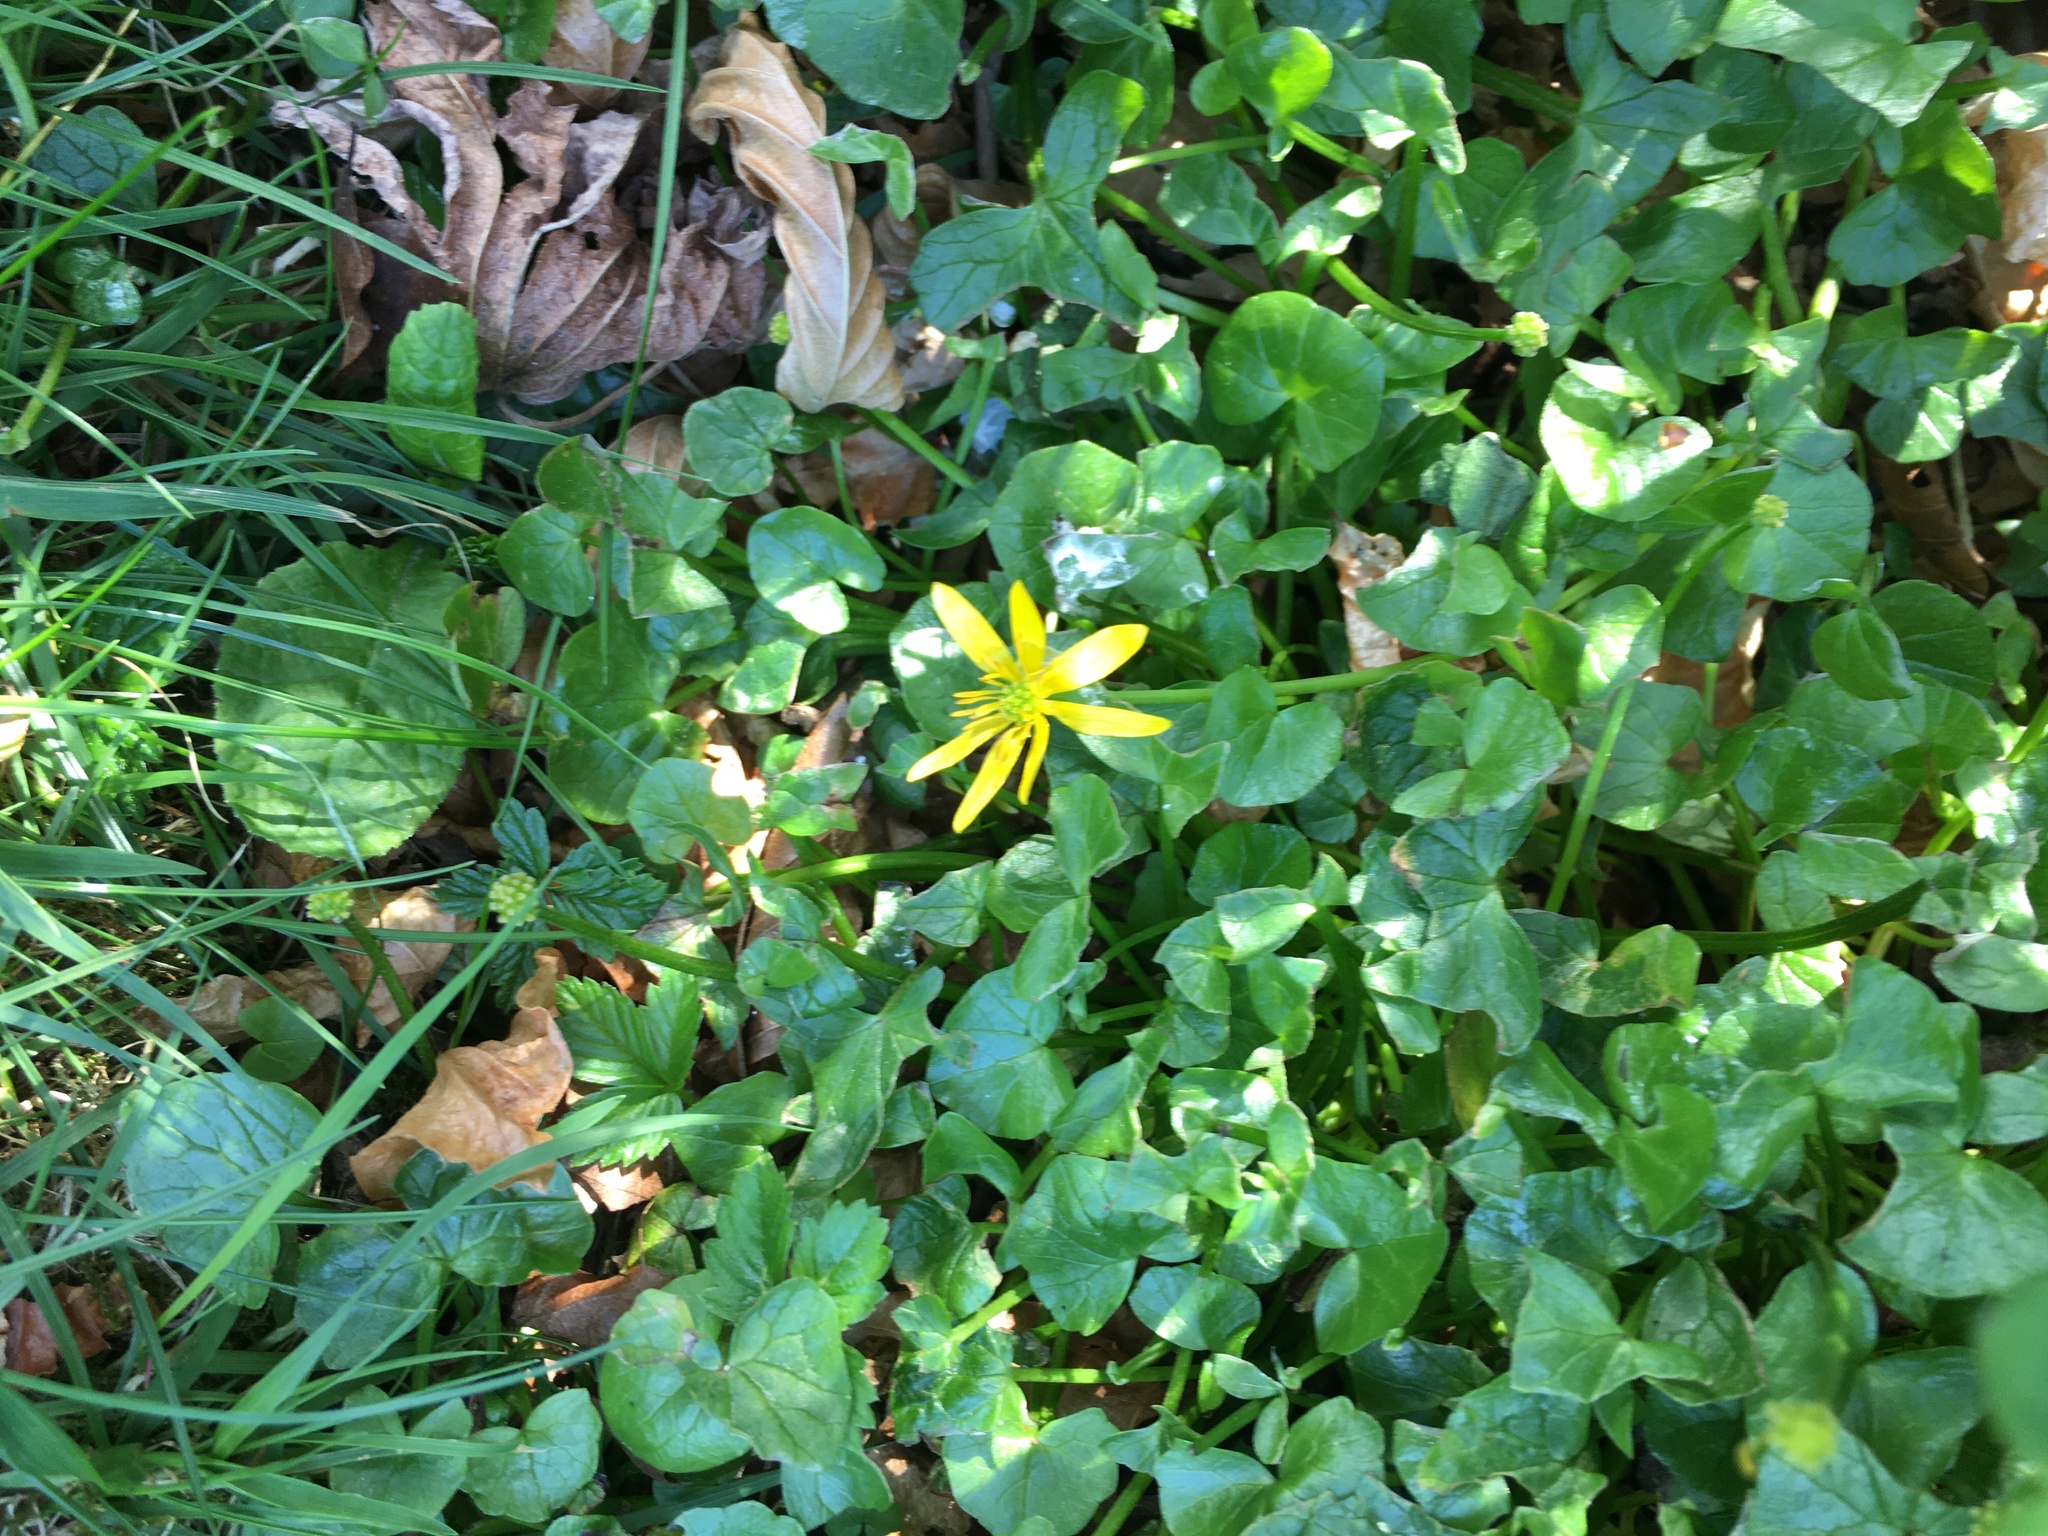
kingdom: Plantae
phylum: Tracheophyta
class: Magnoliopsida
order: Ranunculales
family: Ranunculaceae
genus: Ficaria
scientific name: Ficaria verna
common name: Lesser celandine
